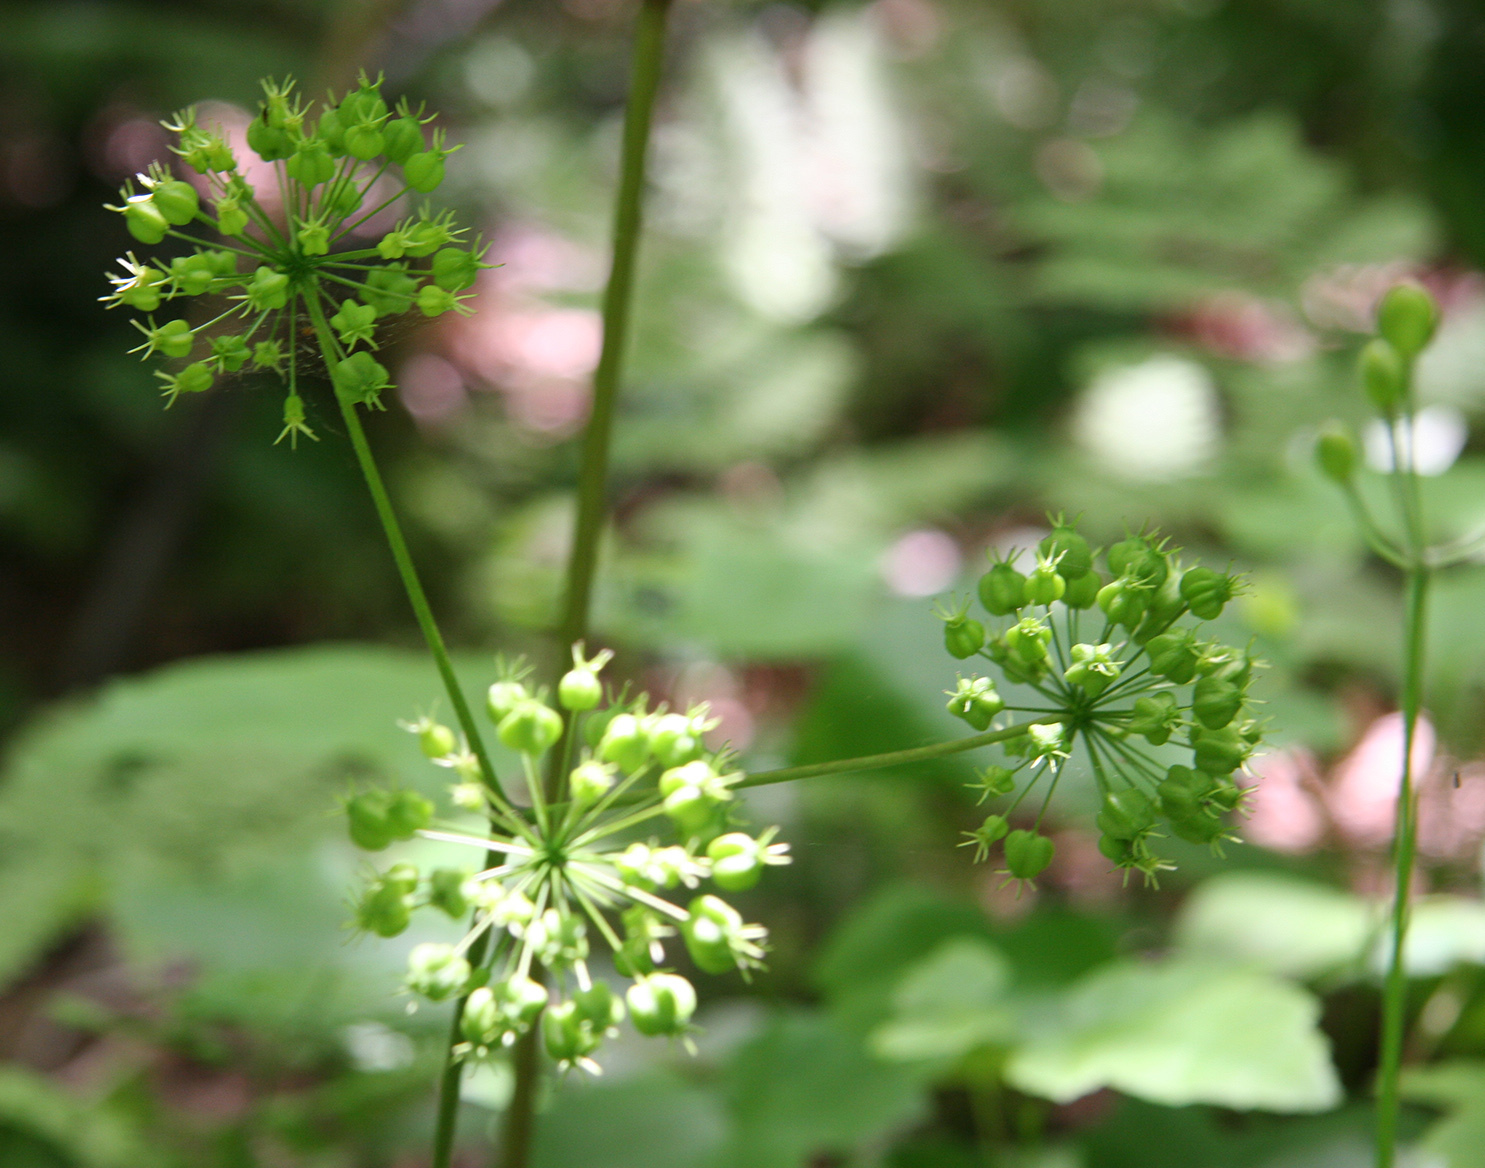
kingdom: Plantae
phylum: Tracheophyta
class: Magnoliopsida
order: Apiales
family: Araliaceae
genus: Aralia
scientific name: Aralia nudicaulis
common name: Wild sarsaparilla
